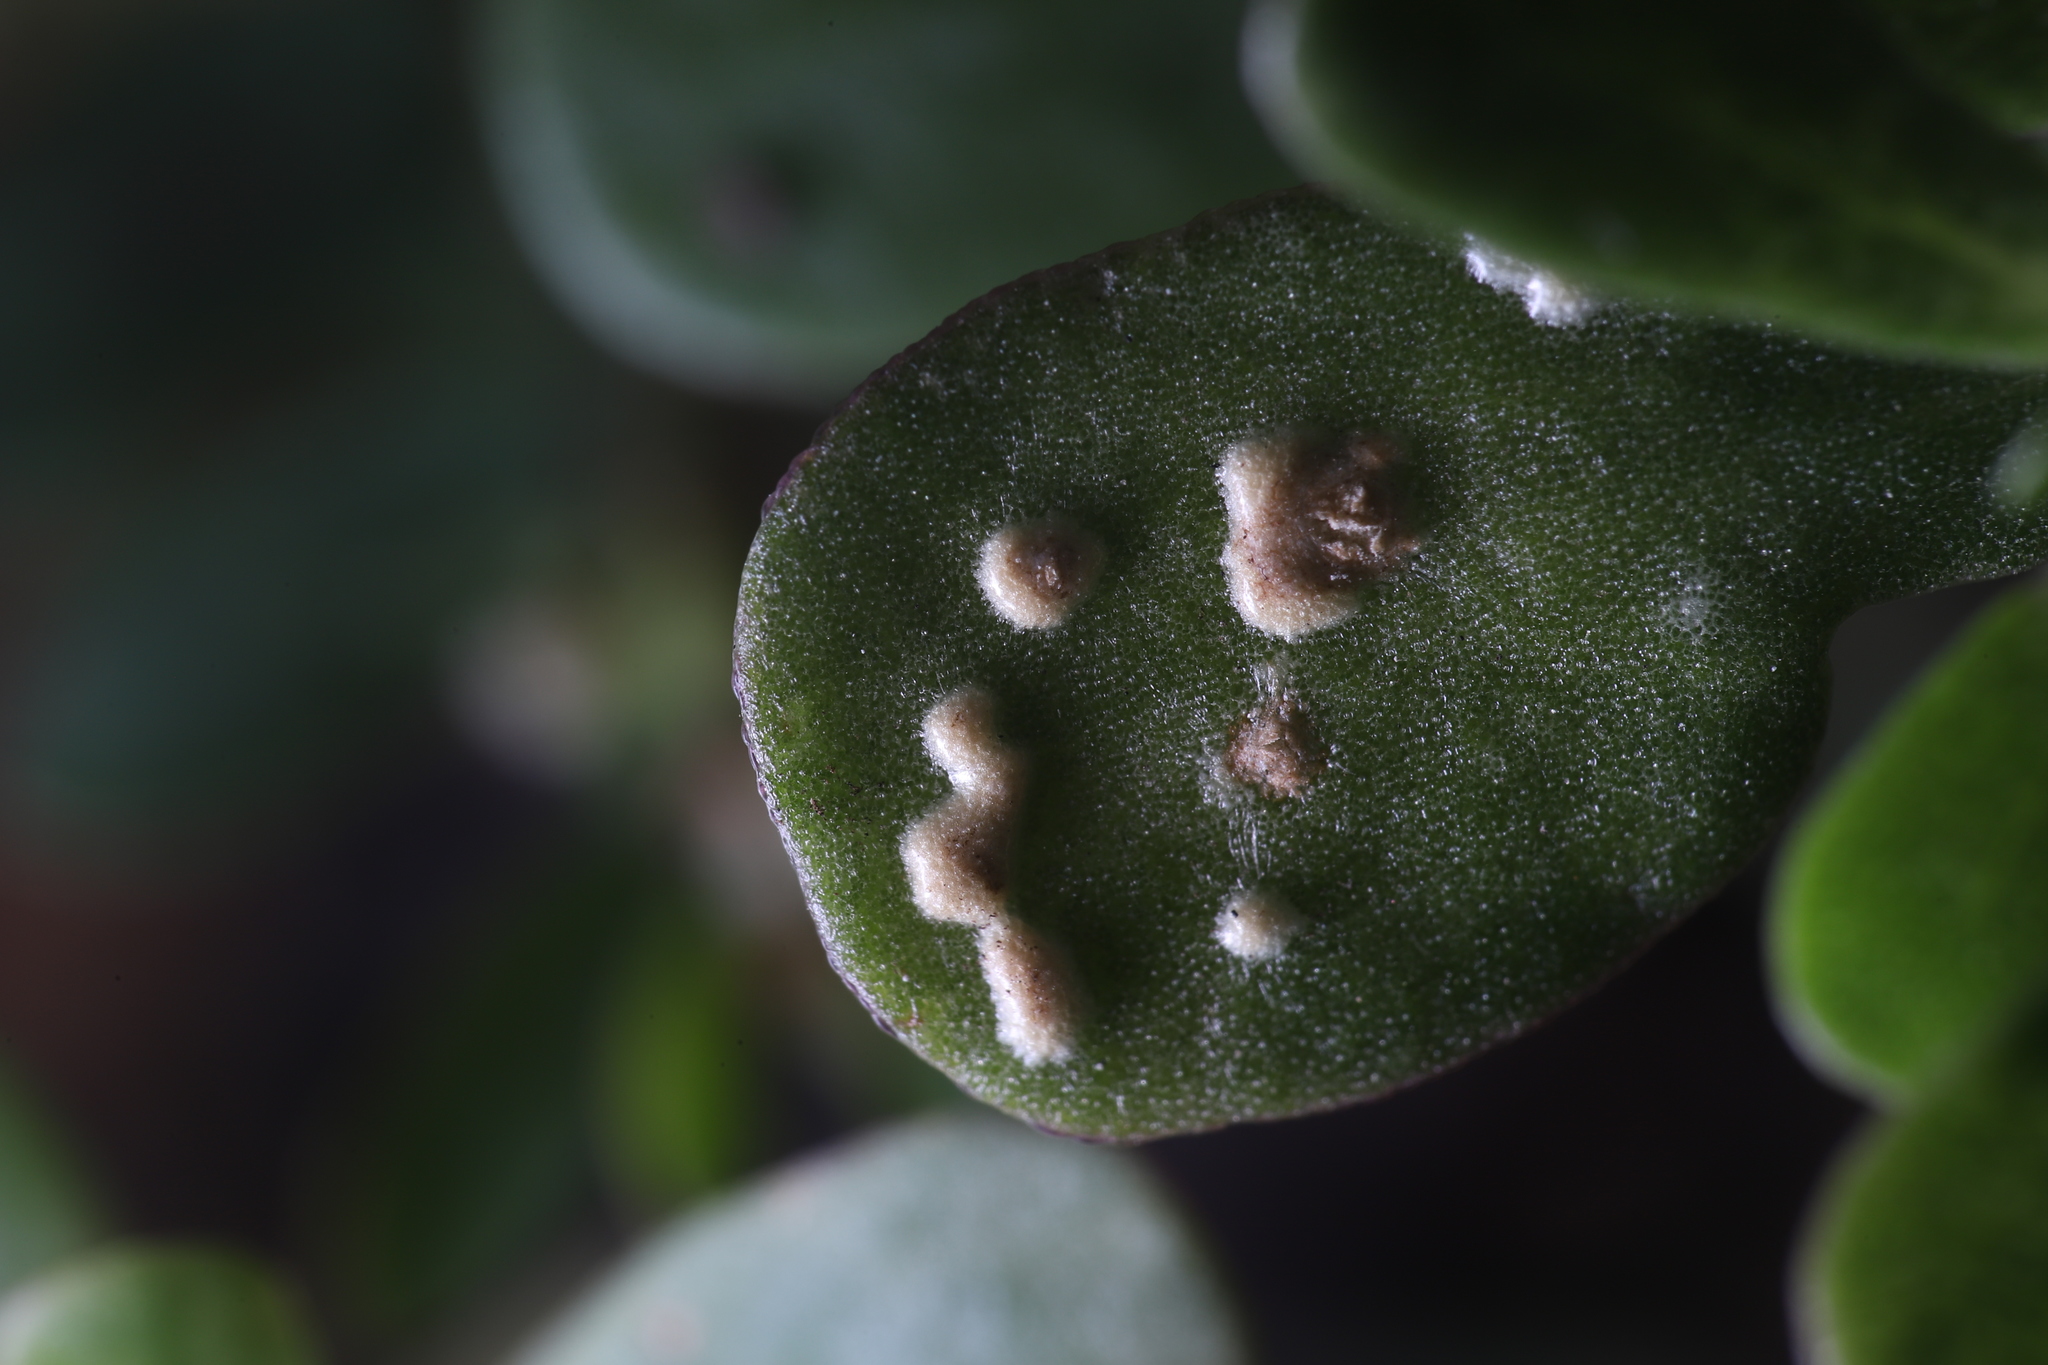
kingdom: Chromista
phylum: Oomycota
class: Peronosporea
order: Albuginales
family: Albuginaceae
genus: Wilsoniana
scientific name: Wilsoniana portulacae
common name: Purslane white rust
